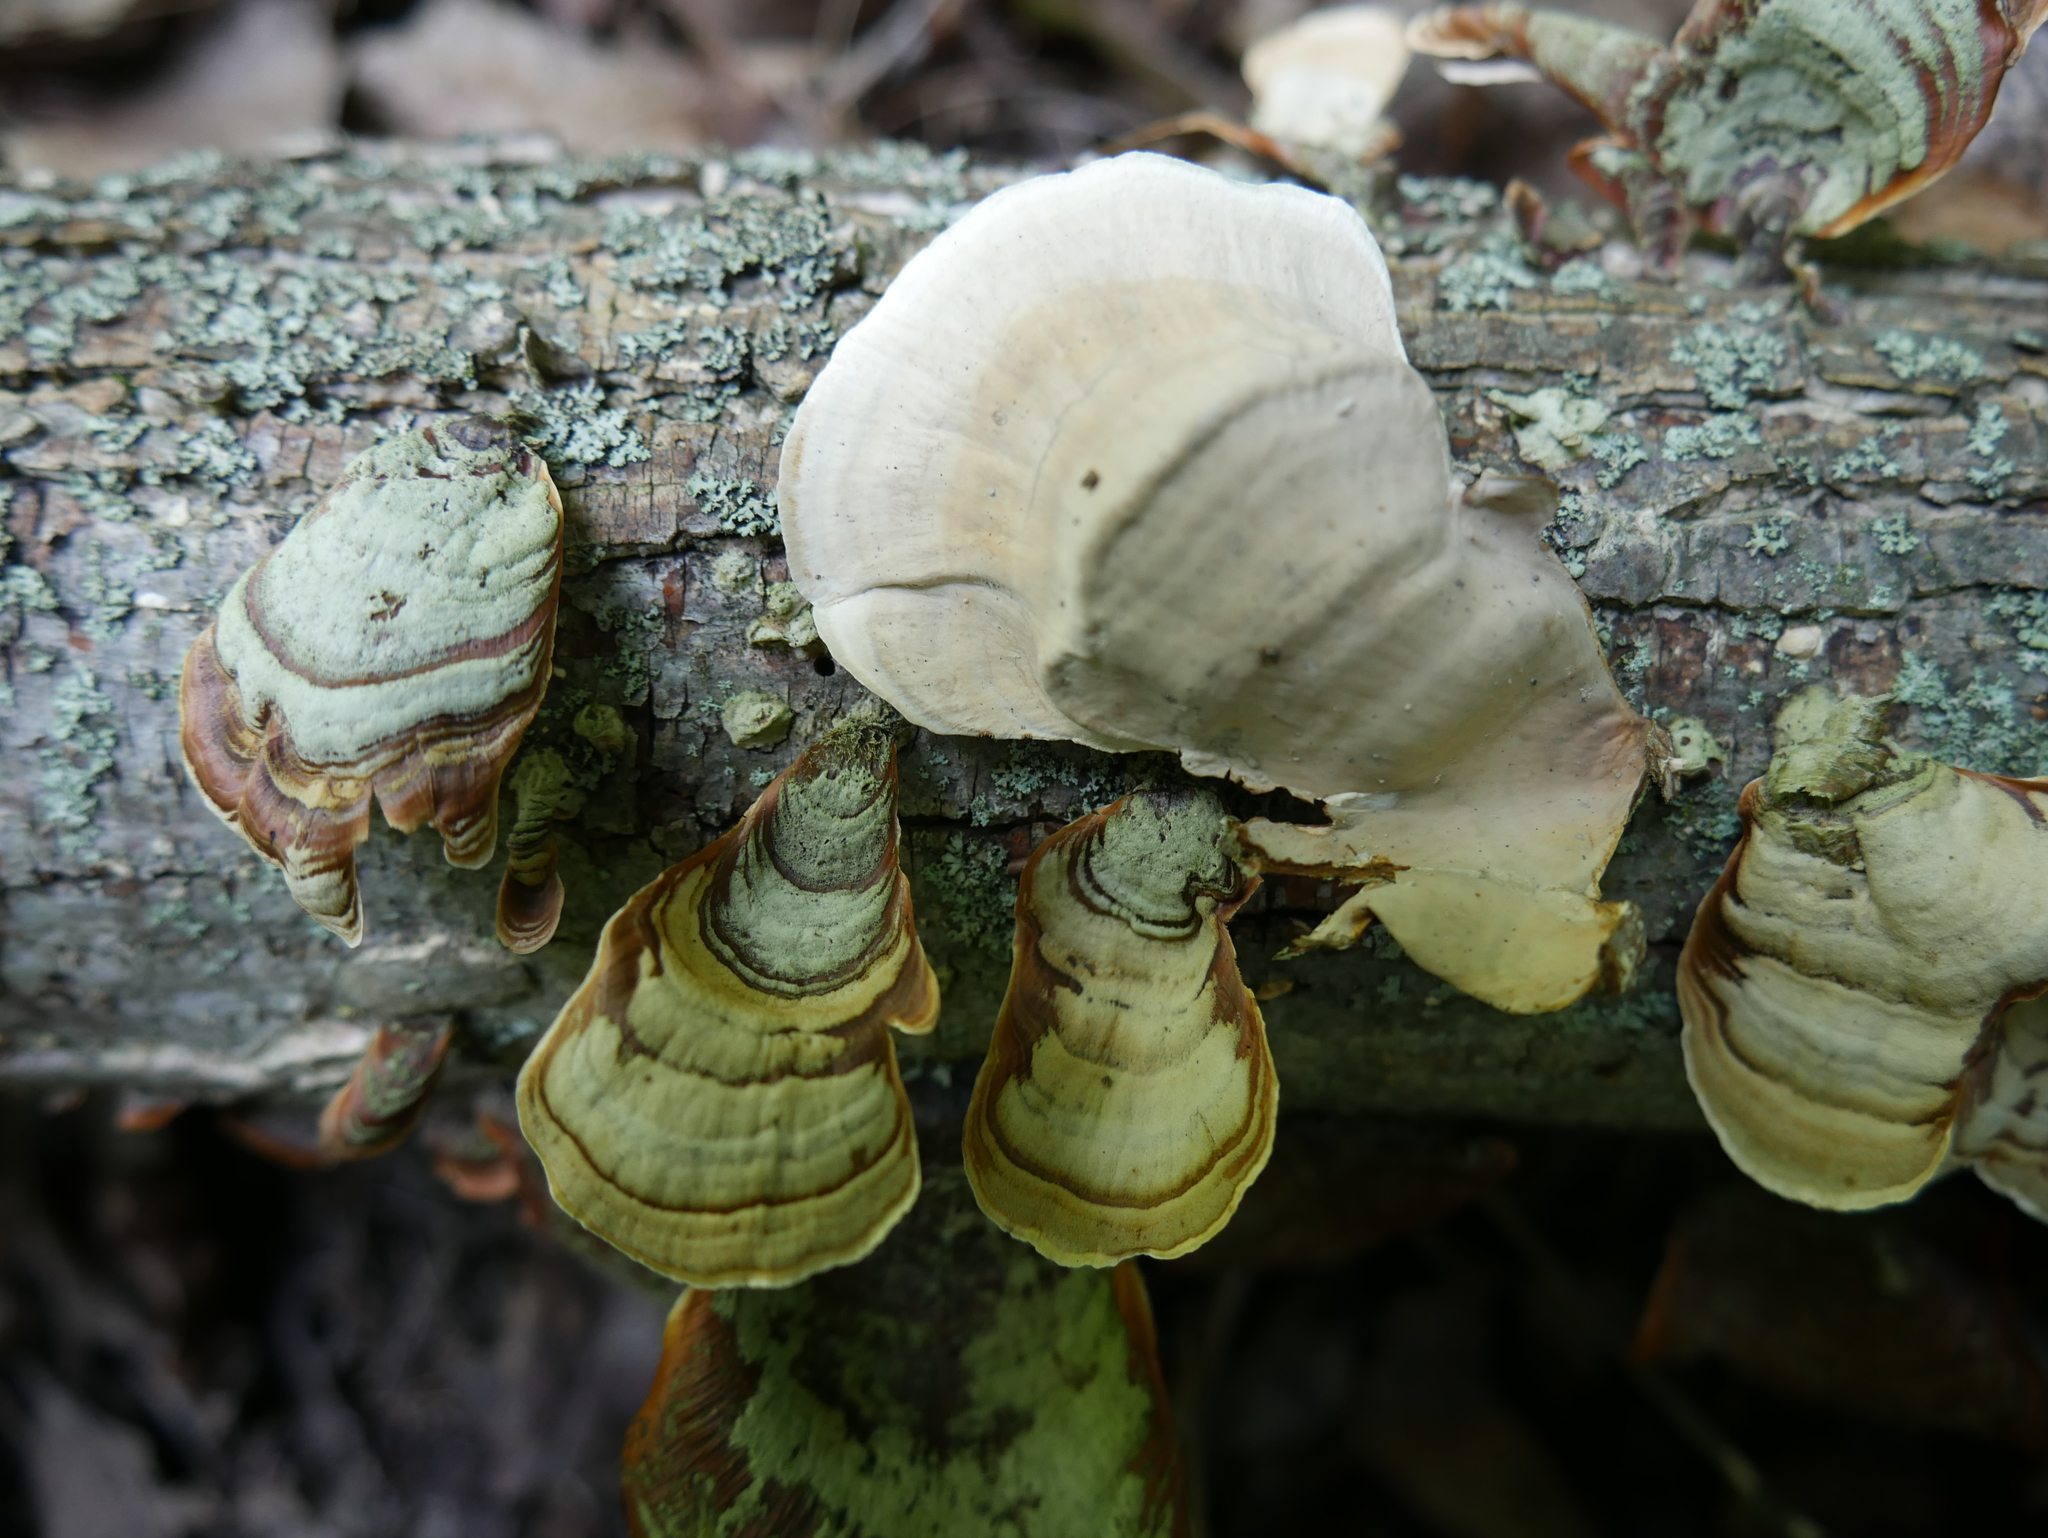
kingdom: Fungi
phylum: Basidiomycota
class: Agaricomycetes
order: Russulales
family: Stereaceae
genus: Stereum
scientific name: Stereum ostrea
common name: False turkeytail
